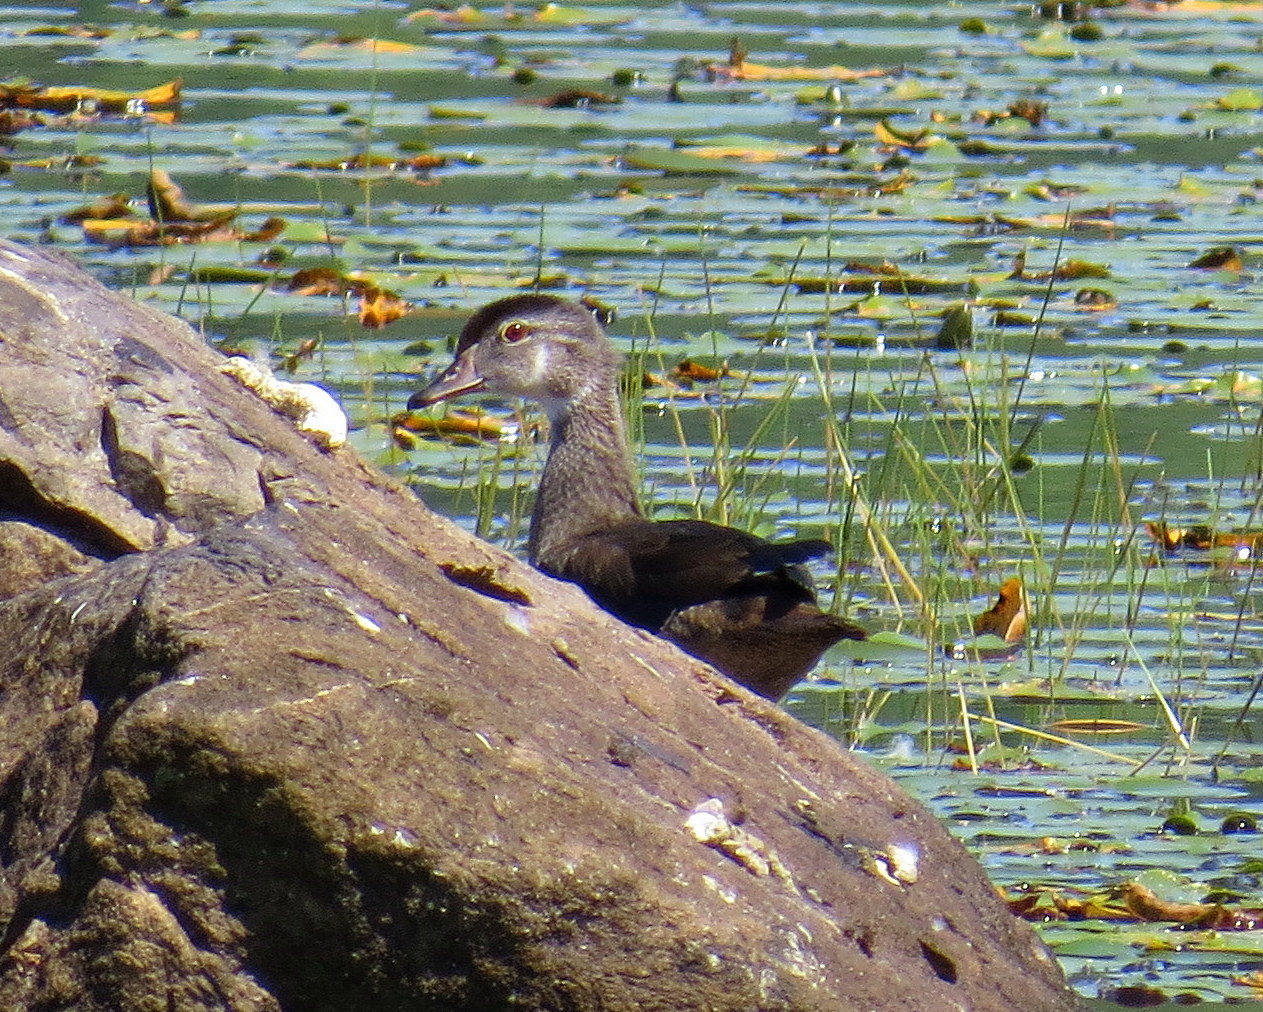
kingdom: Animalia
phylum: Chordata
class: Aves
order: Anseriformes
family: Anatidae
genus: Aix
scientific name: Aix sponsa
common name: Wood duck
